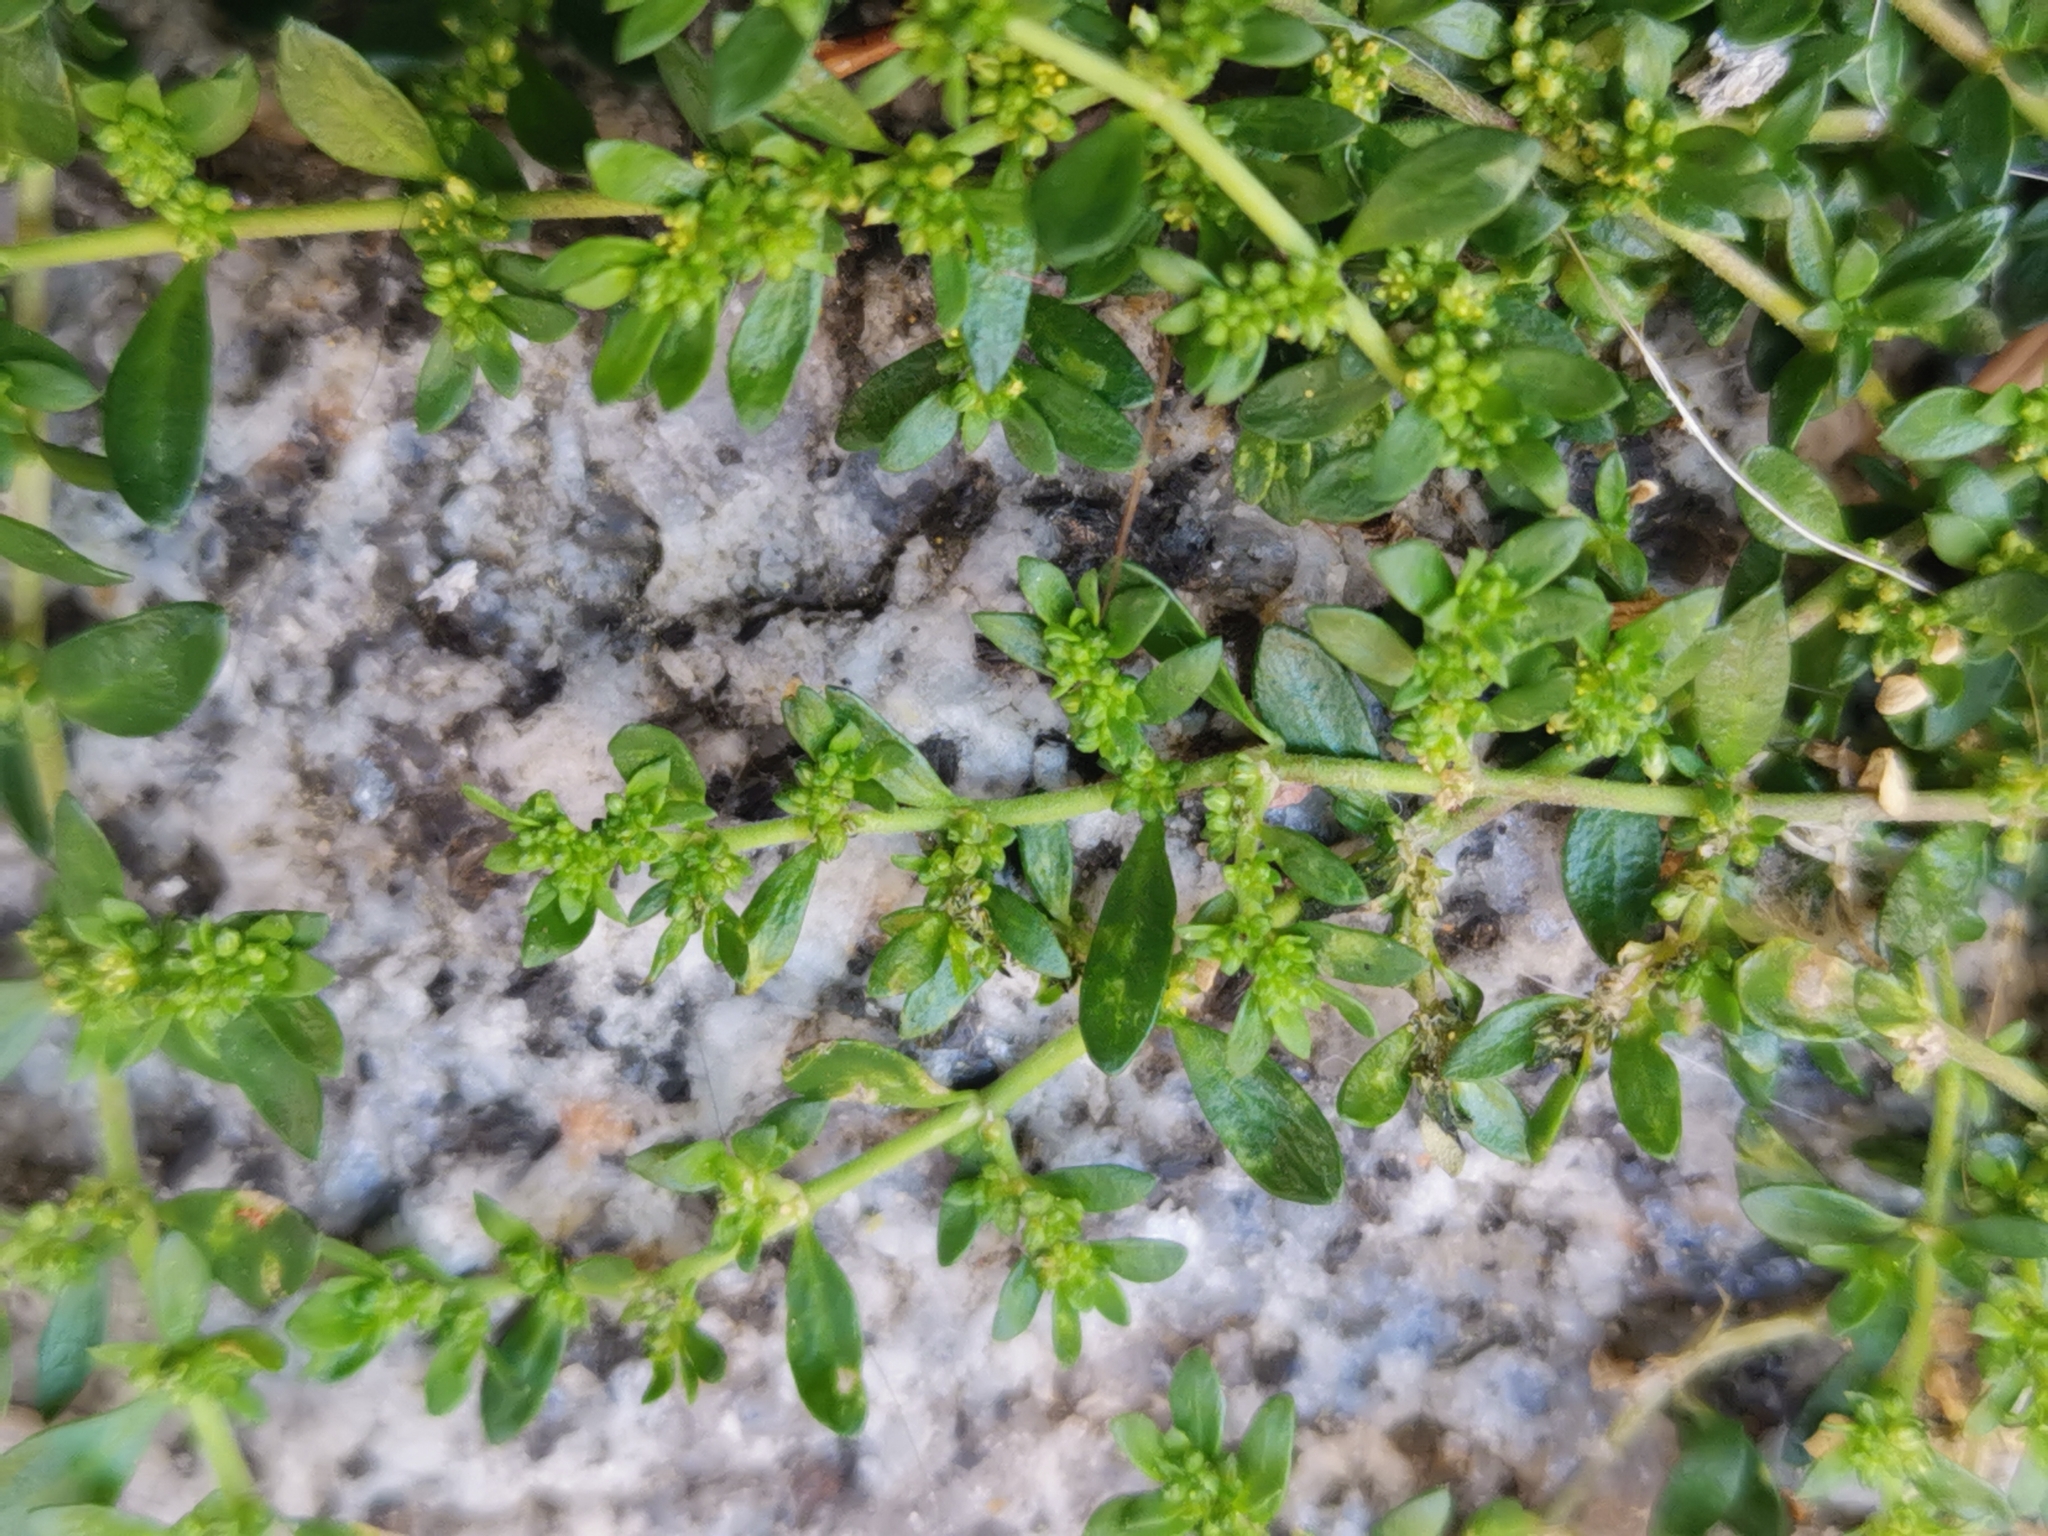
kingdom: Plantae
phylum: Tracheophyta
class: Magnoliopsida
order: Caryophyllales
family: Caryophyllaceae
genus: Herniaria
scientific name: Herniaria glabra
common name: Smooth rupturewort
